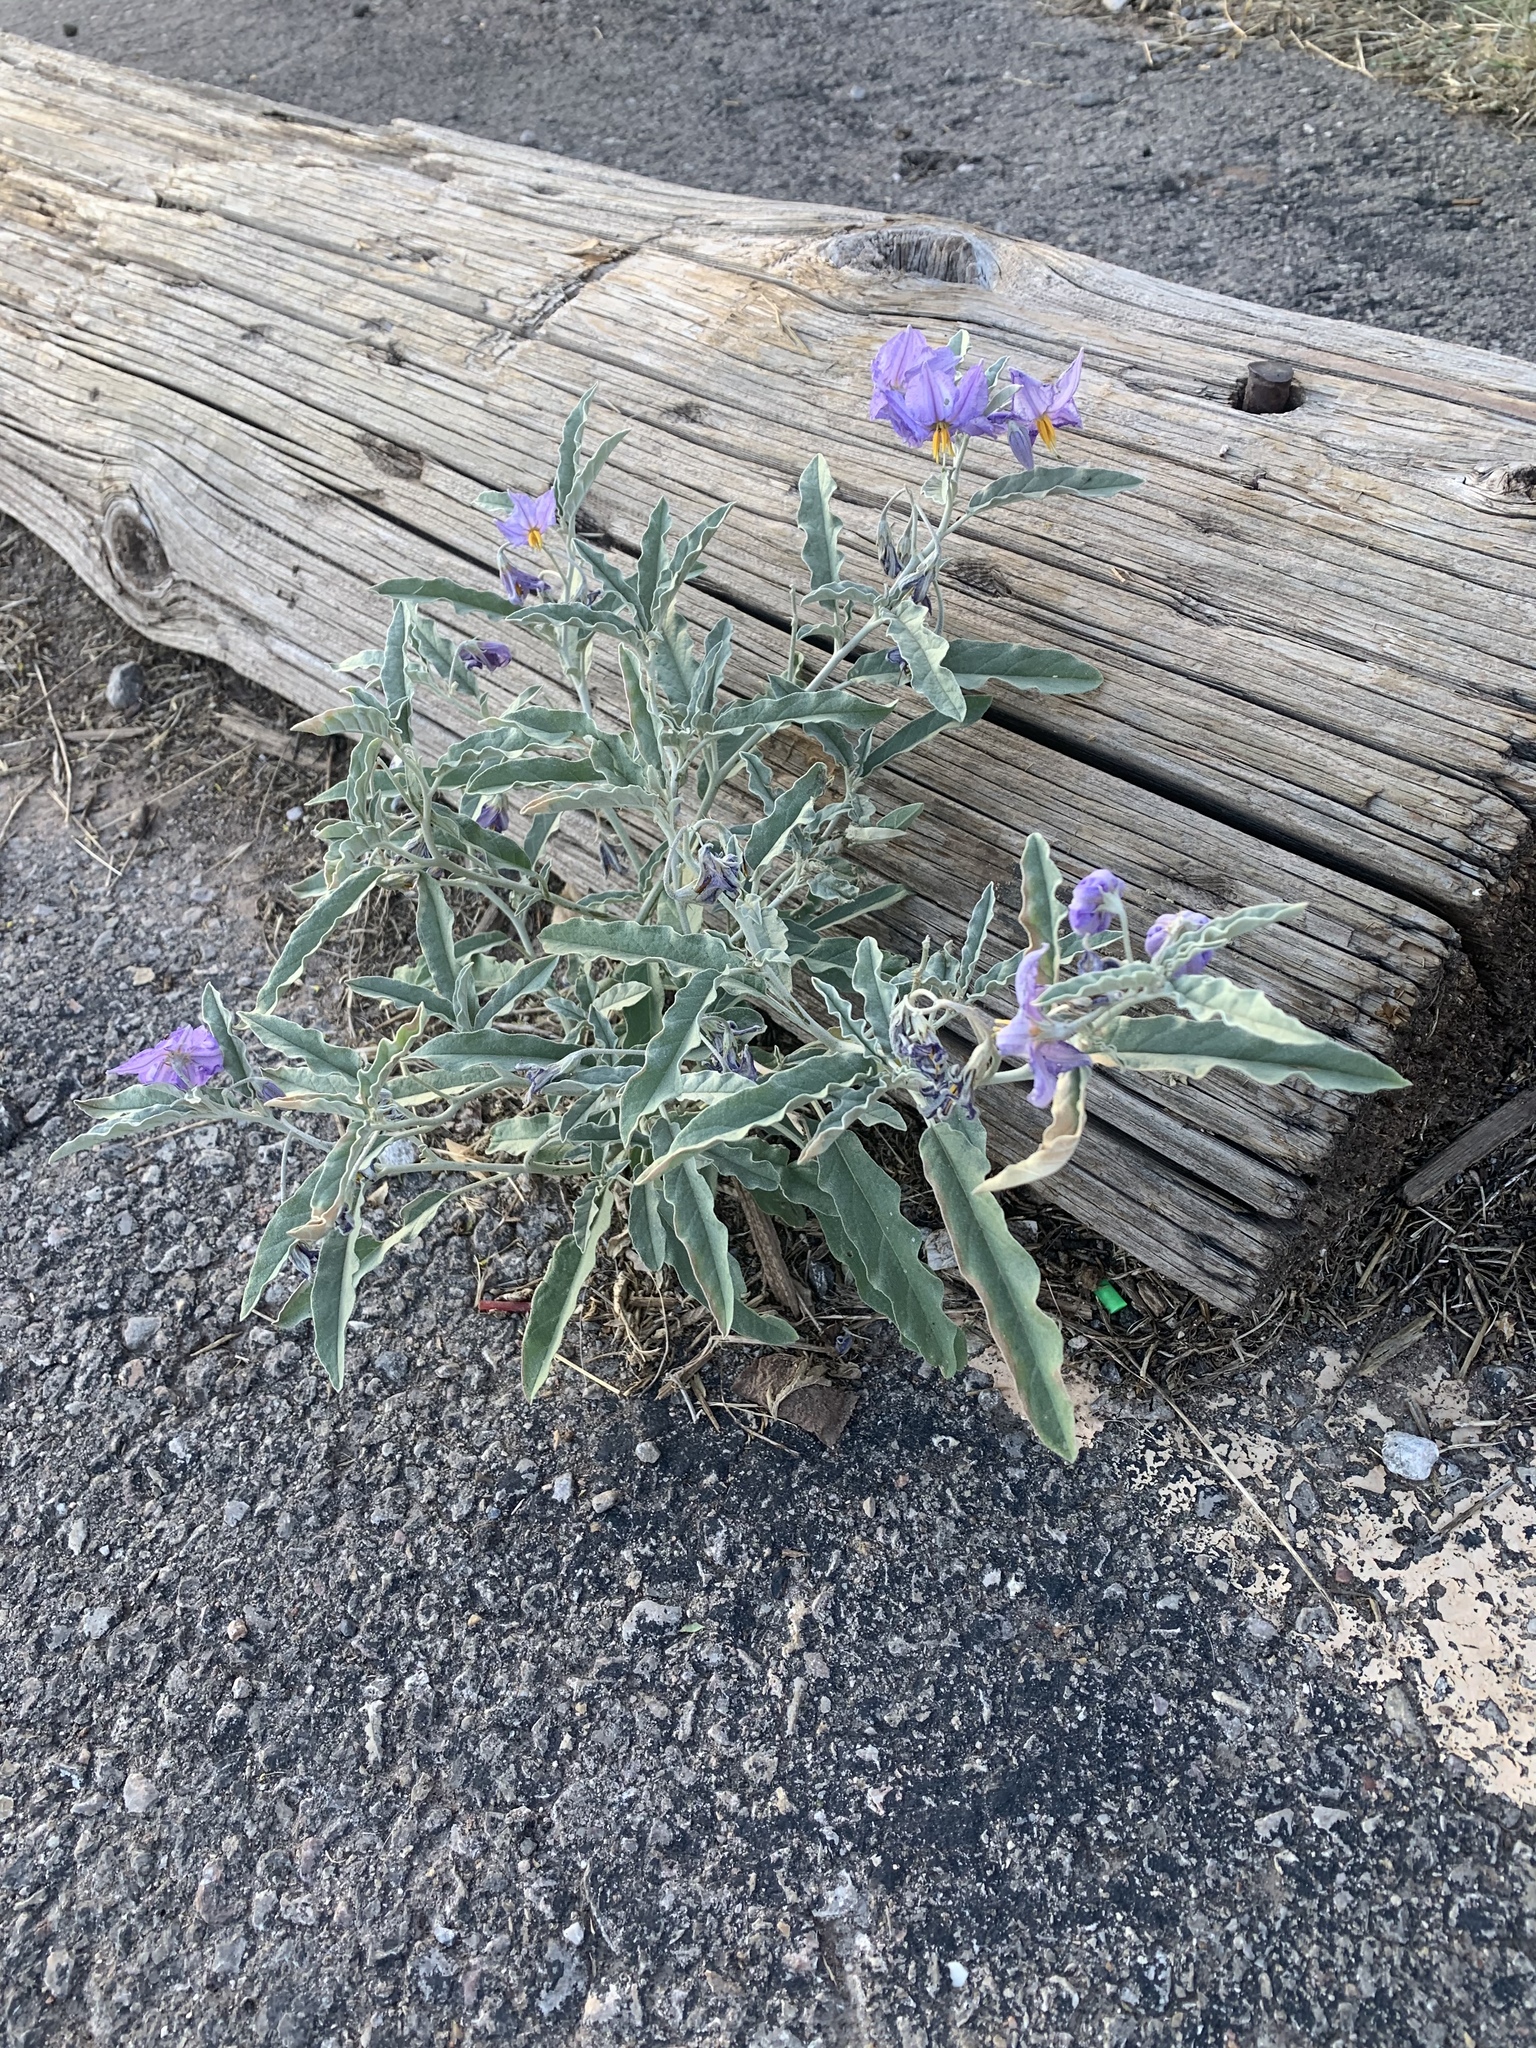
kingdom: Plantae
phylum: Tracheophyta
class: Magnoliopsida
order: Solanales
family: Solanaceae
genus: Solanum
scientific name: Solanum elaeagnifolium
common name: Silverleaf nightshade
